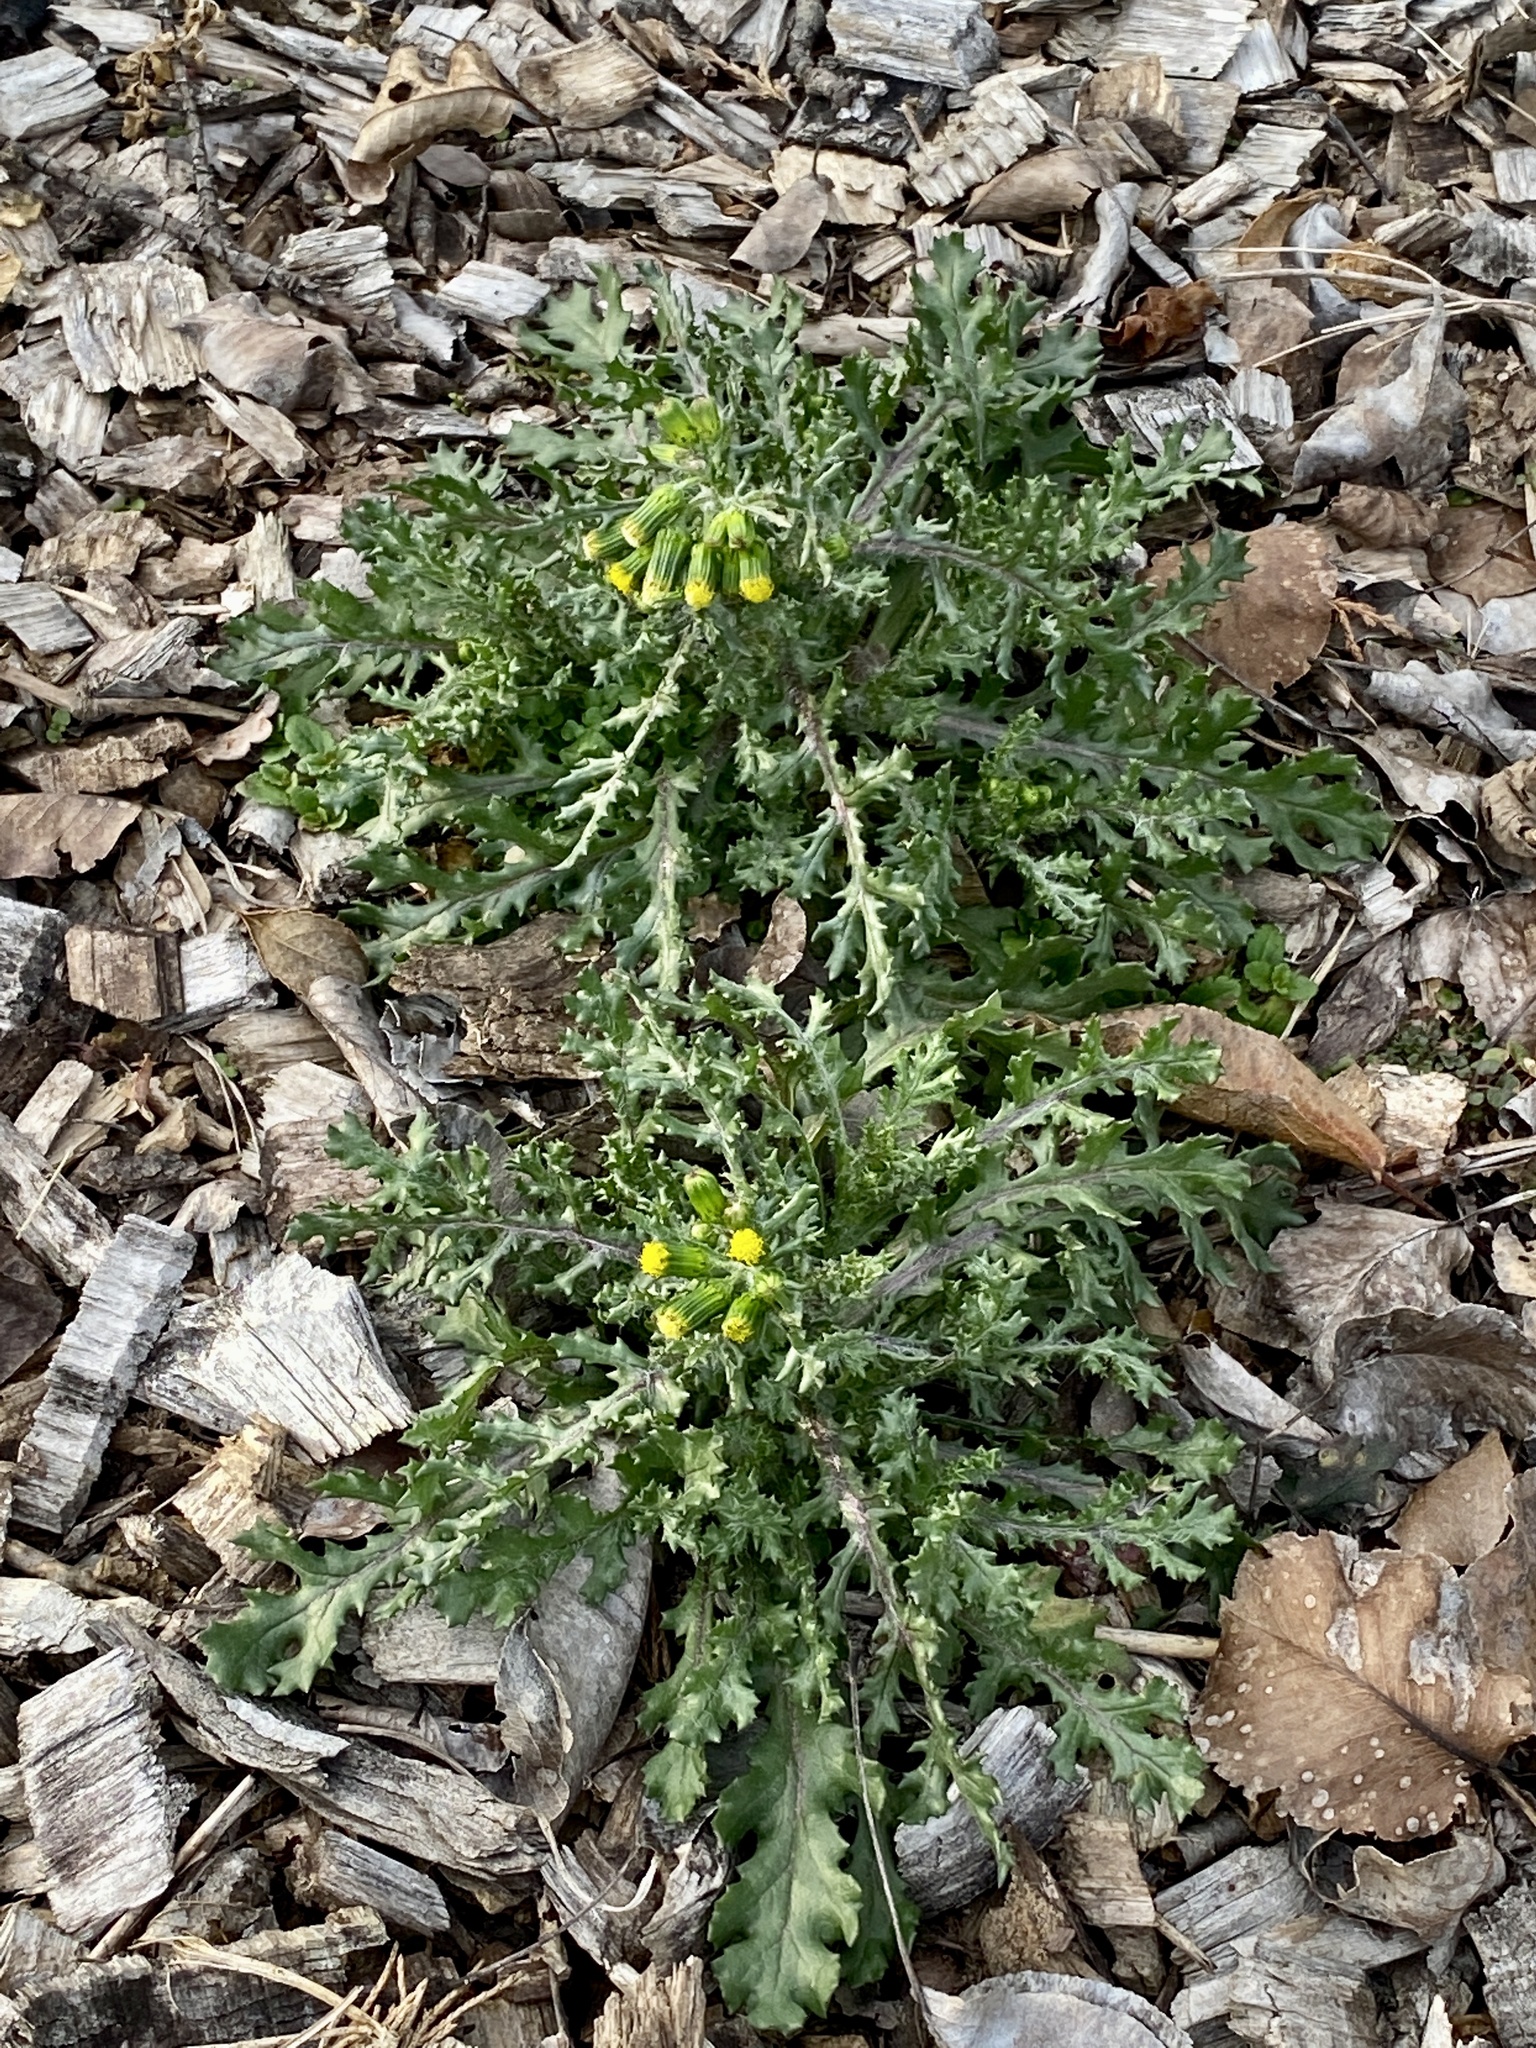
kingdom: Plantae
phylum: Tracheophyta
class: Magnoliopsida
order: Asterales
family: Asteraceae
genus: Senecio
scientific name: Senecio vulgaris
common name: Old-man-in-the-spring
